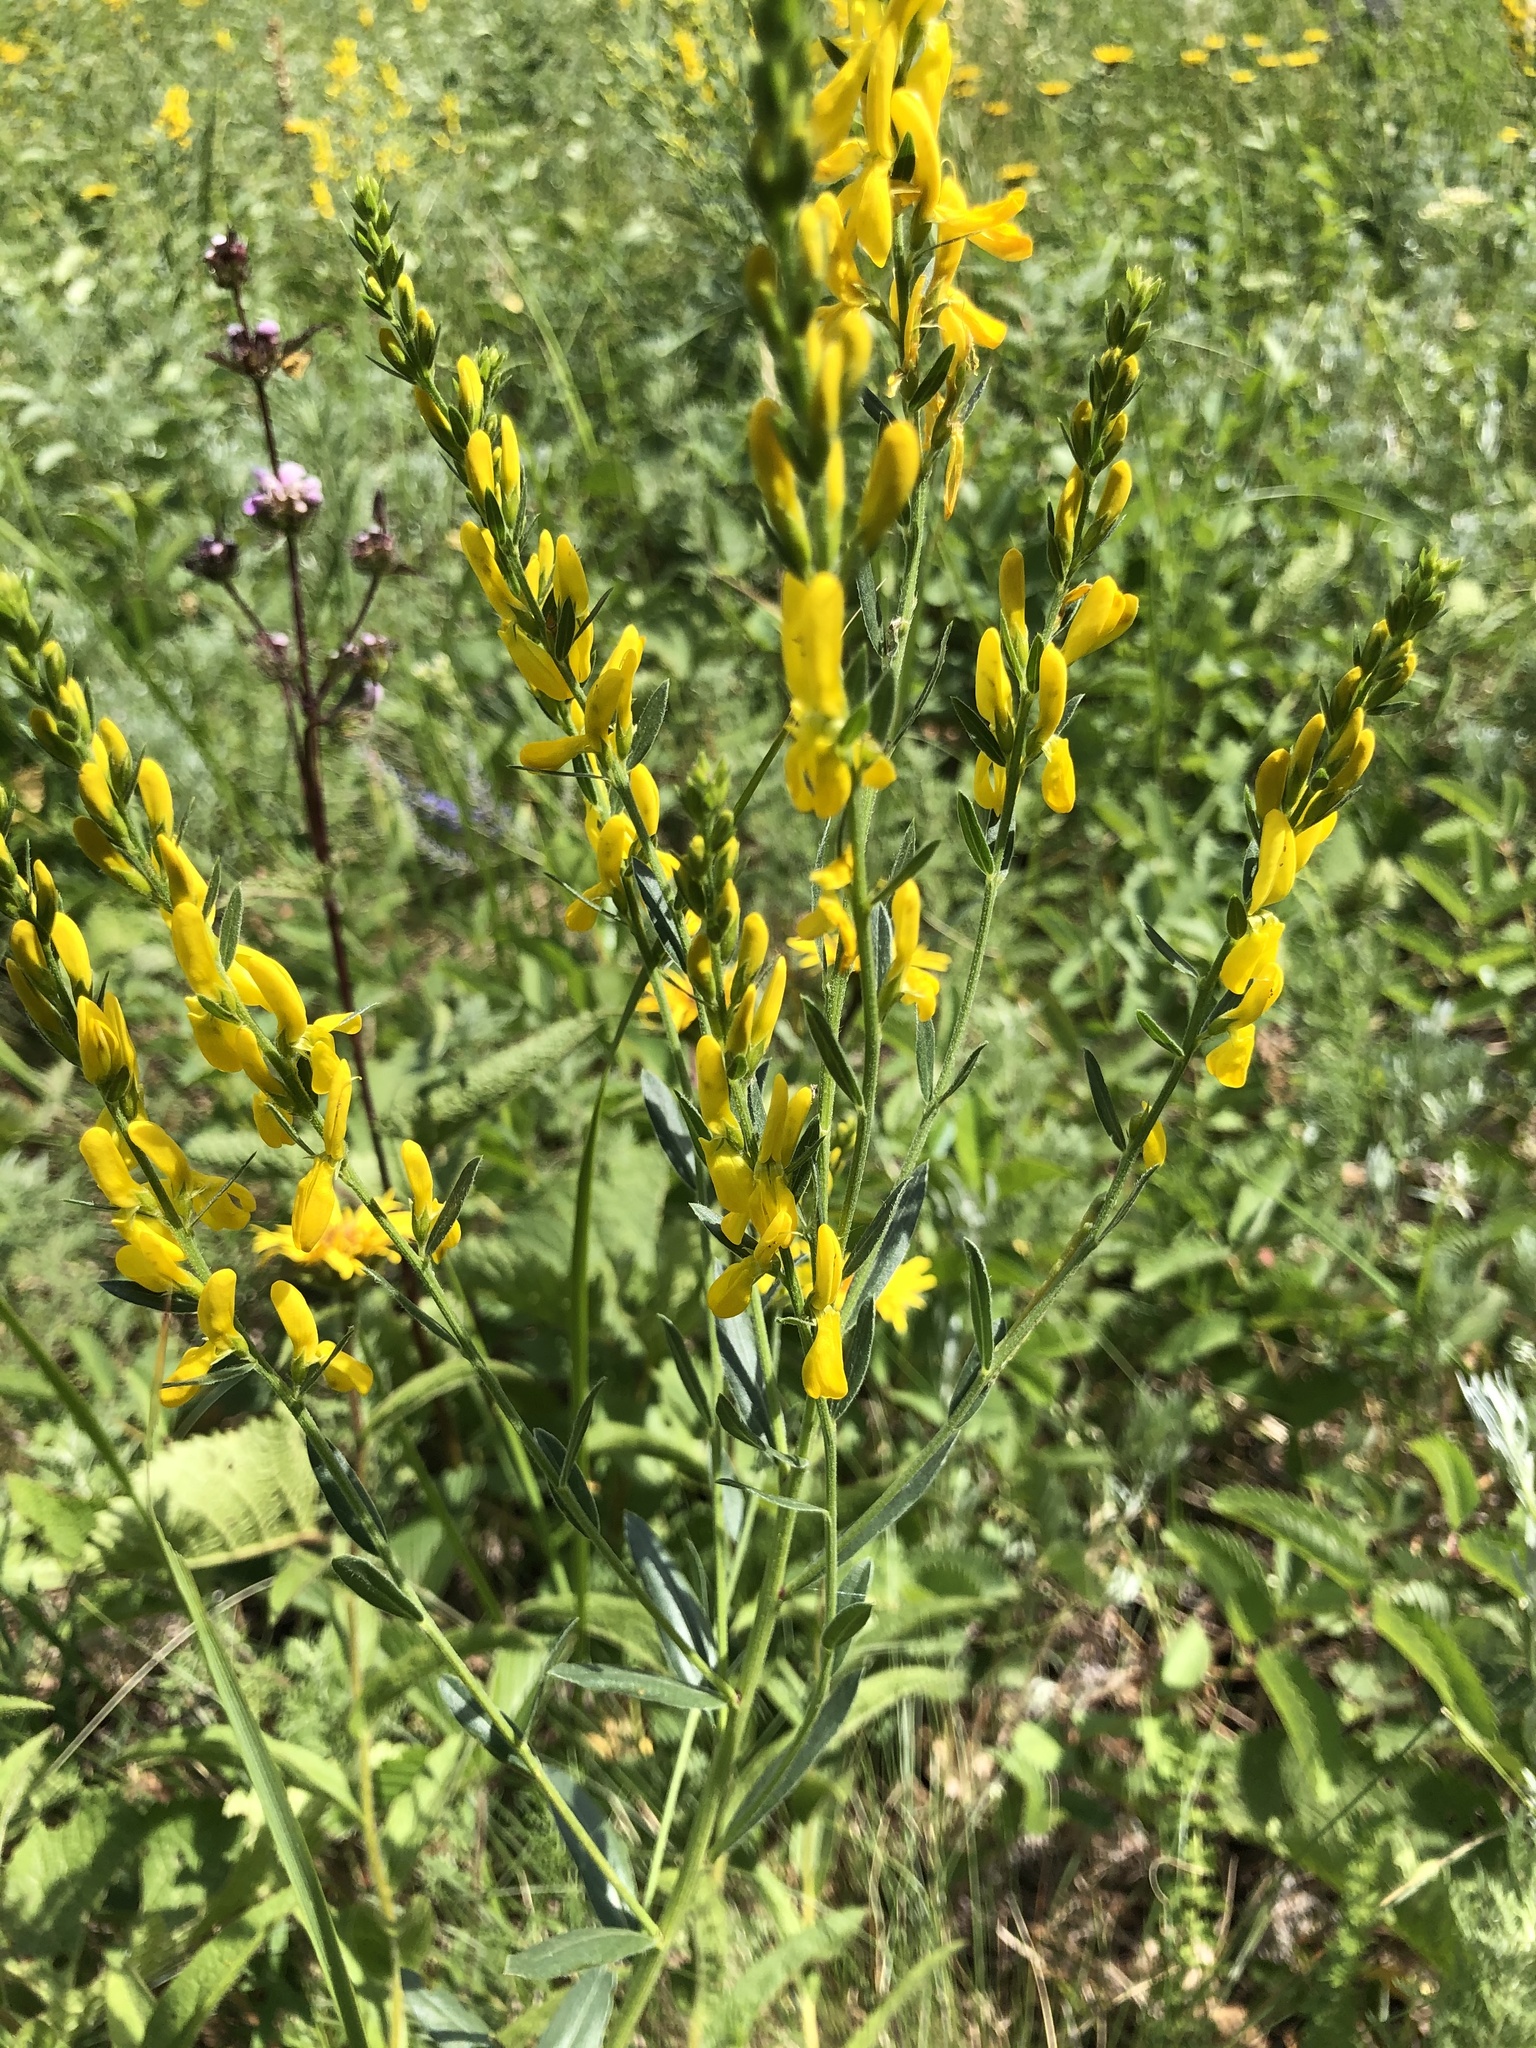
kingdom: Plantae
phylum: Tracheophyta
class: Magnoliopsida
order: Fabales
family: Fabaceae
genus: Genista
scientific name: Genista tinctoria
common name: Dyer's greenweed
